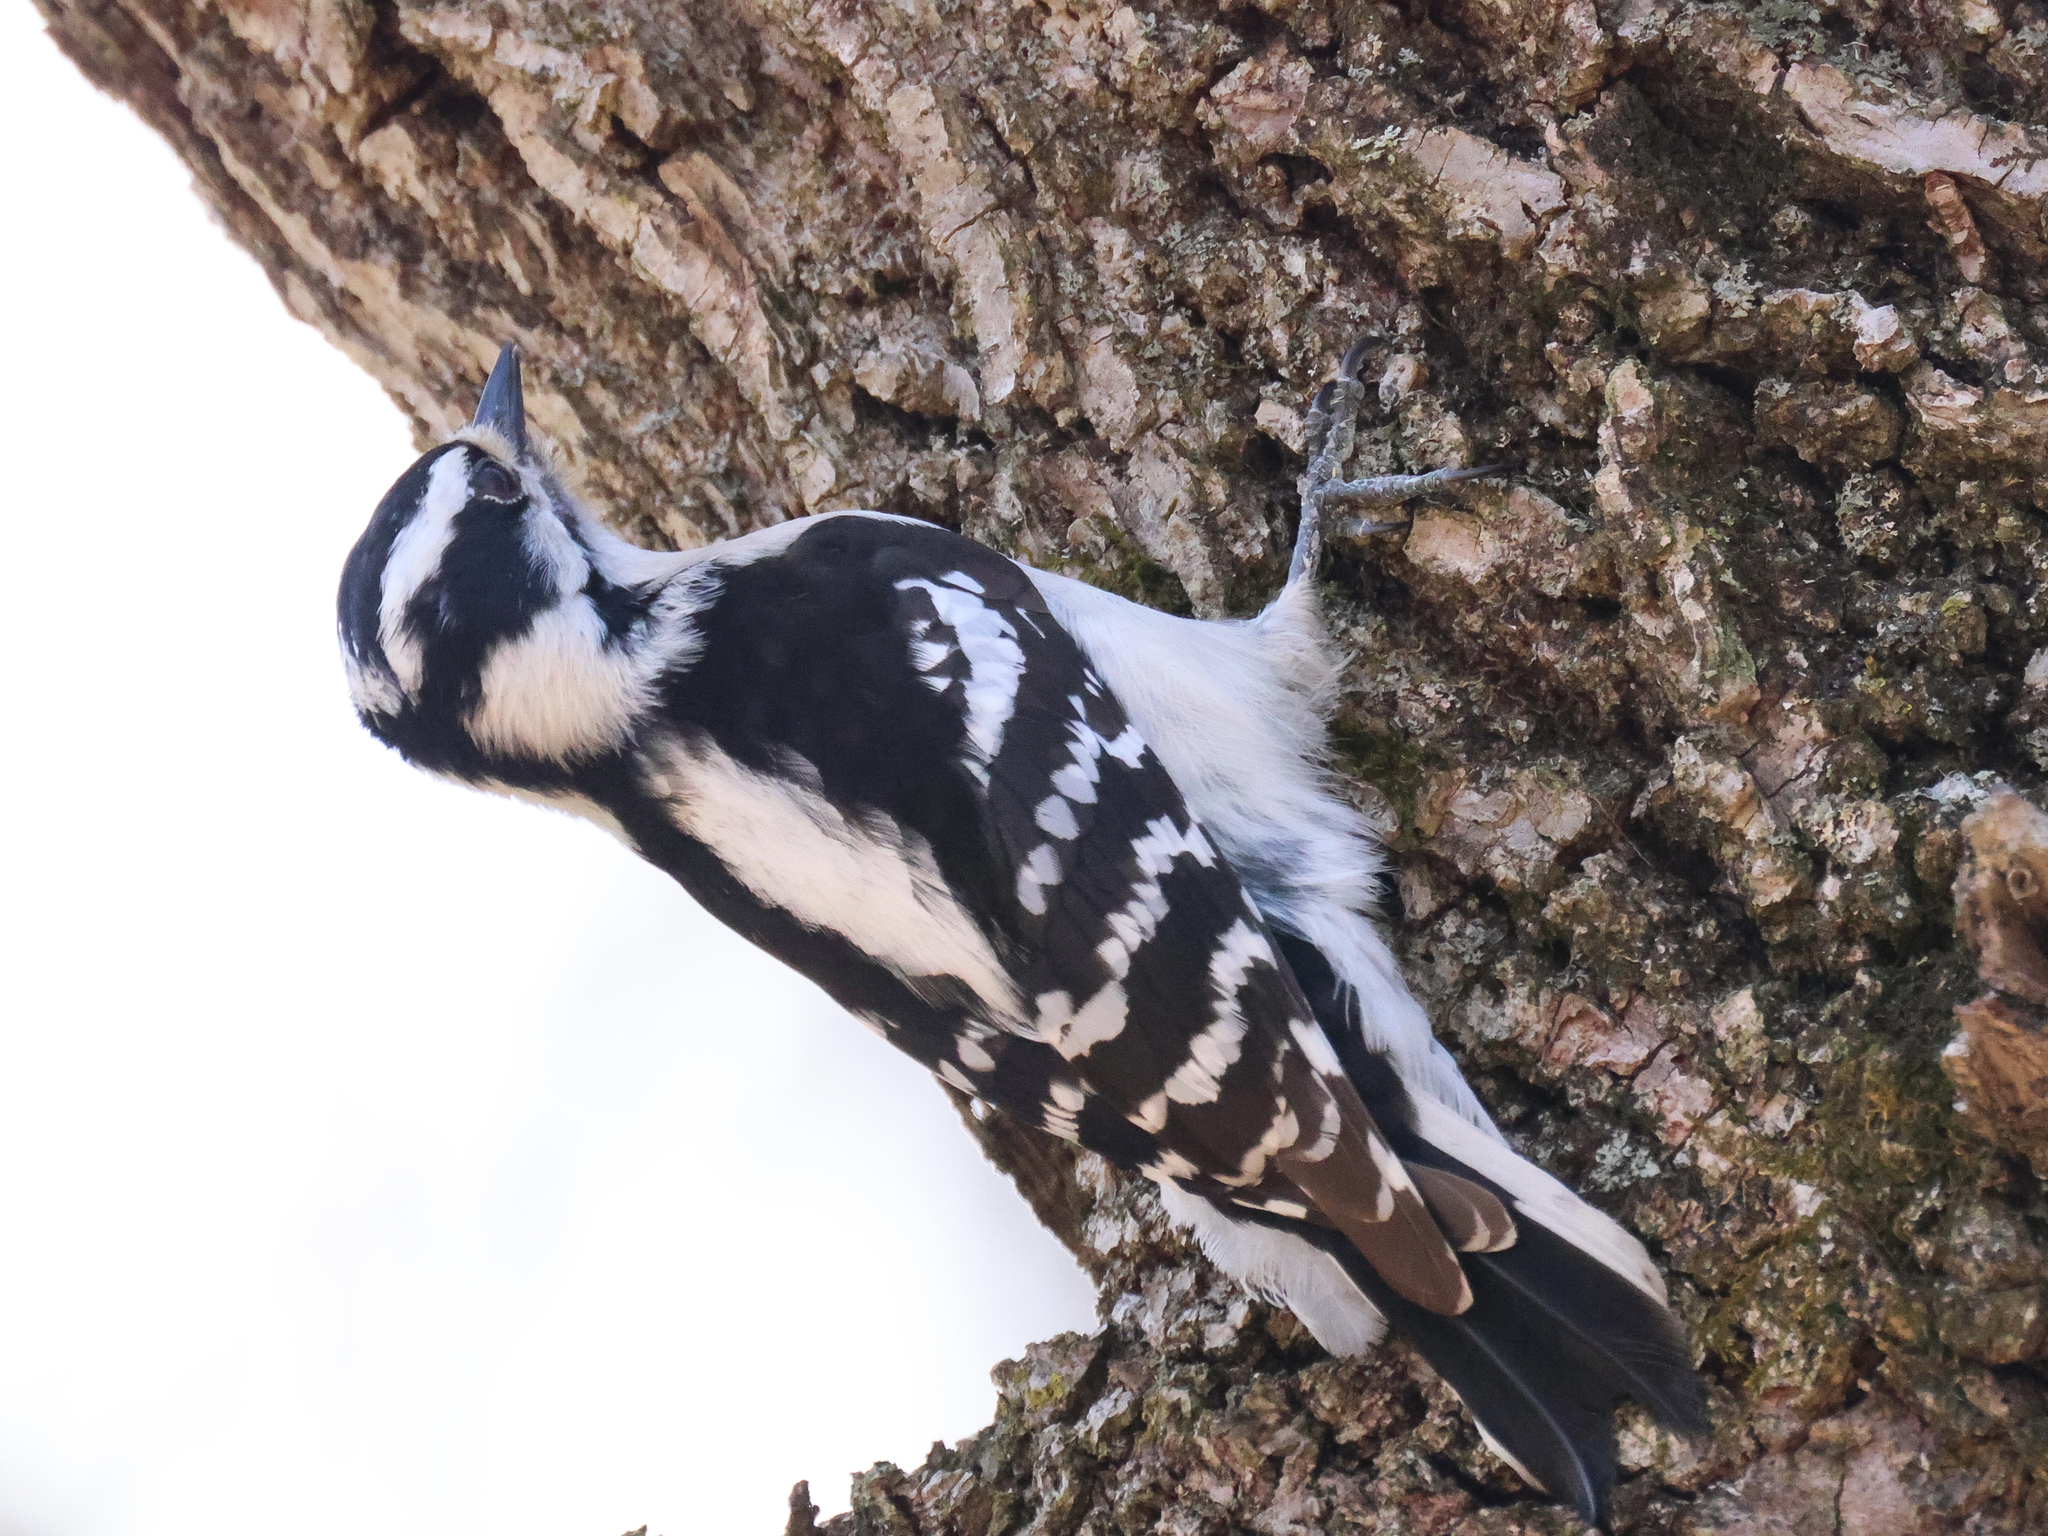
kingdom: Animalia
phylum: Chordata
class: Aves
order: Piciformes
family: Picidae
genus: Dryobates
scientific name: Dryobates pubescens
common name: Downy woodpecker
